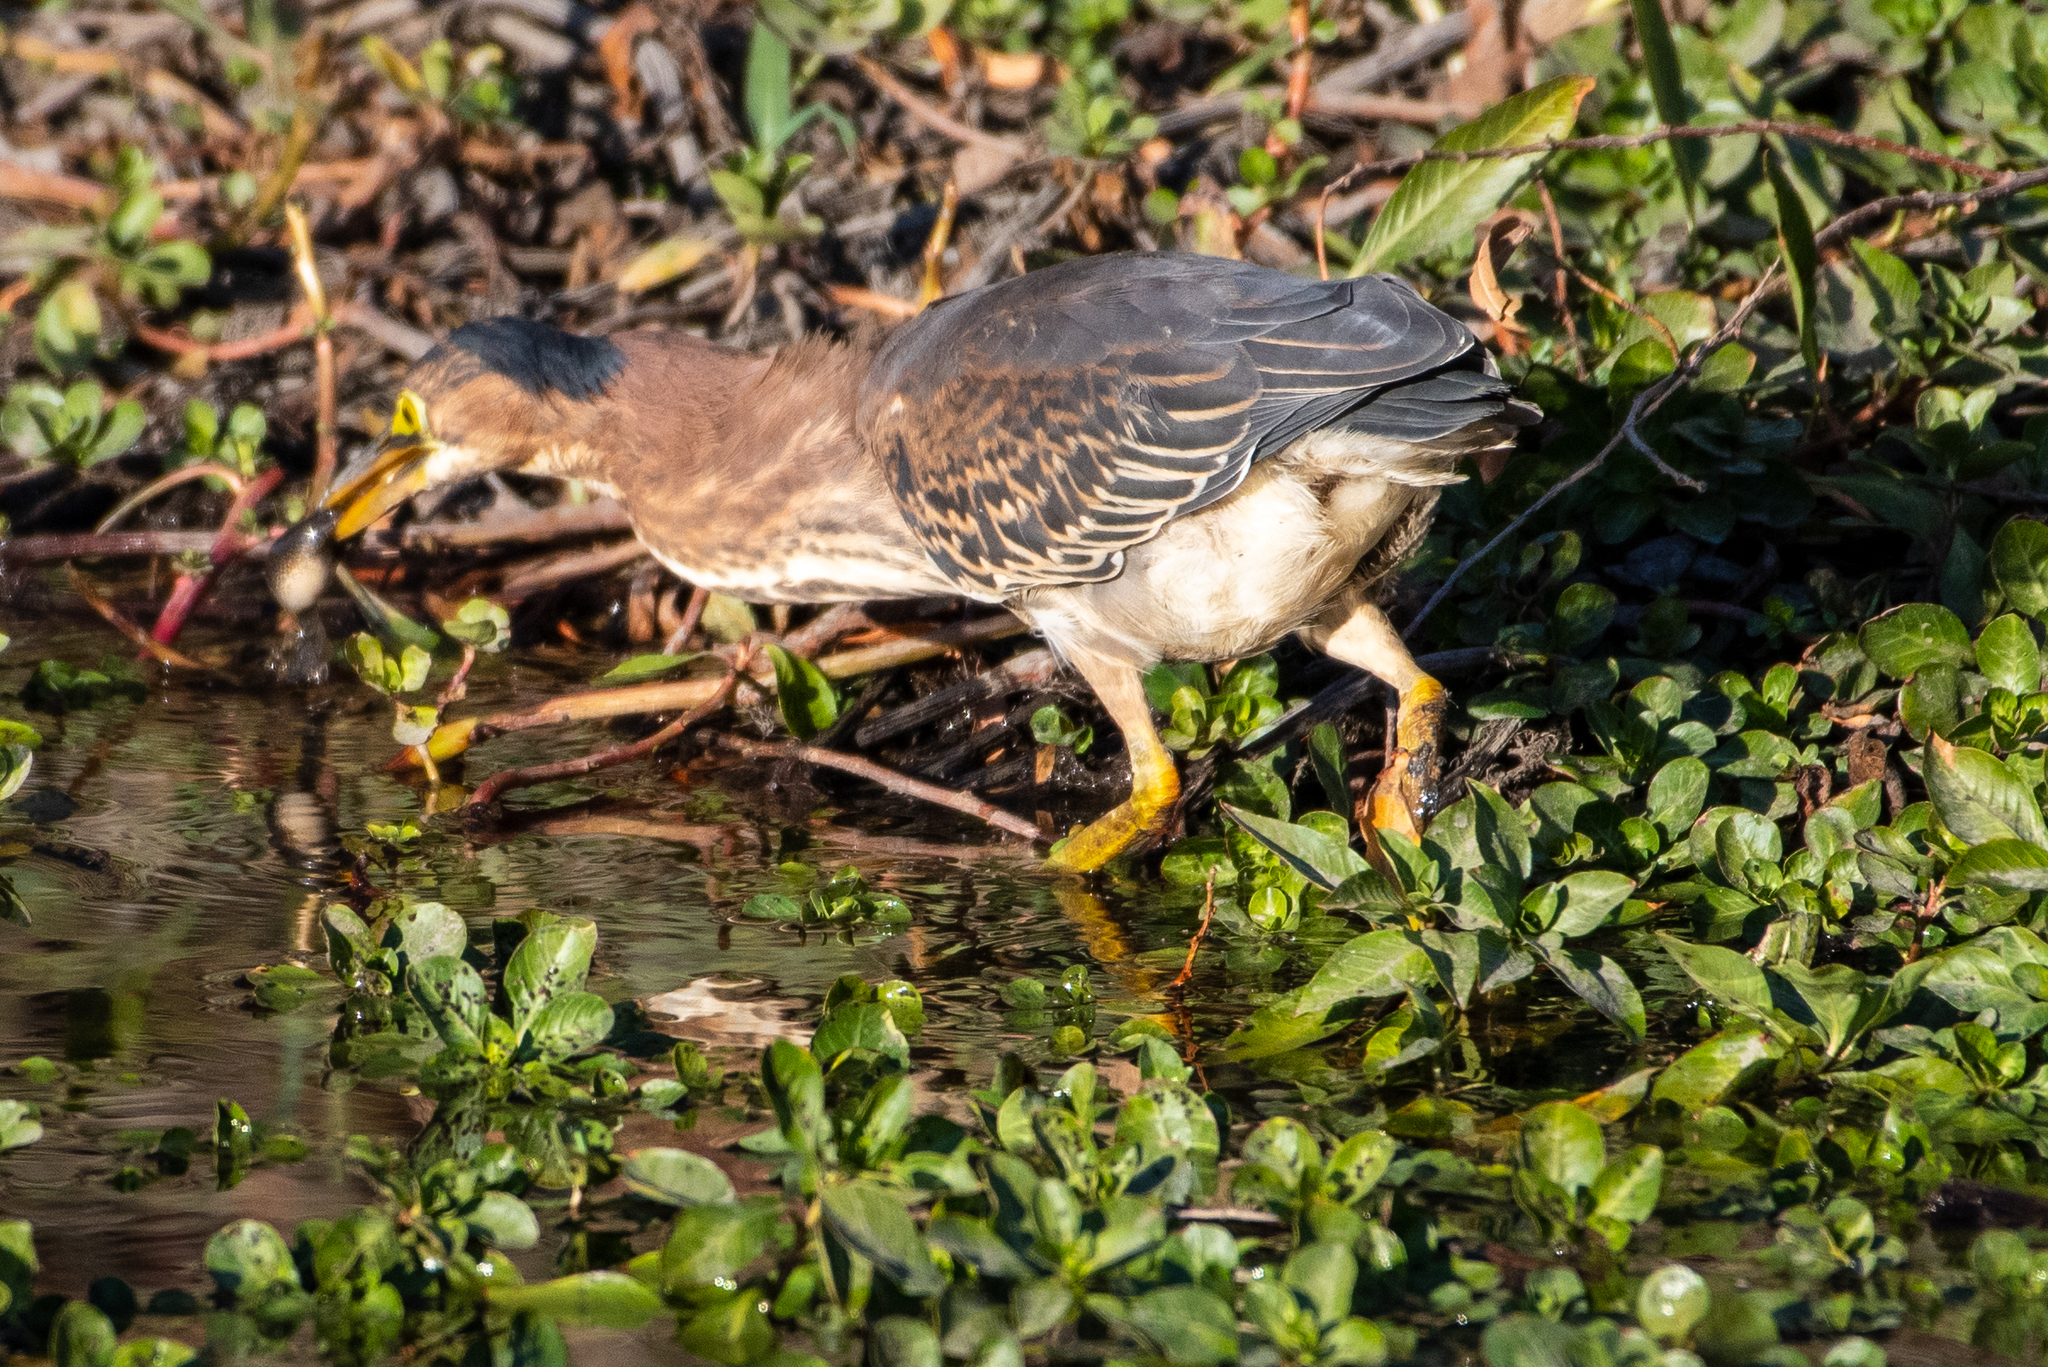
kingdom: Animalia
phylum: Chordata
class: Aves
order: Pelecaniformes
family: Ardeidae
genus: Butorides
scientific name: Butorides virescens
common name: Green heron
